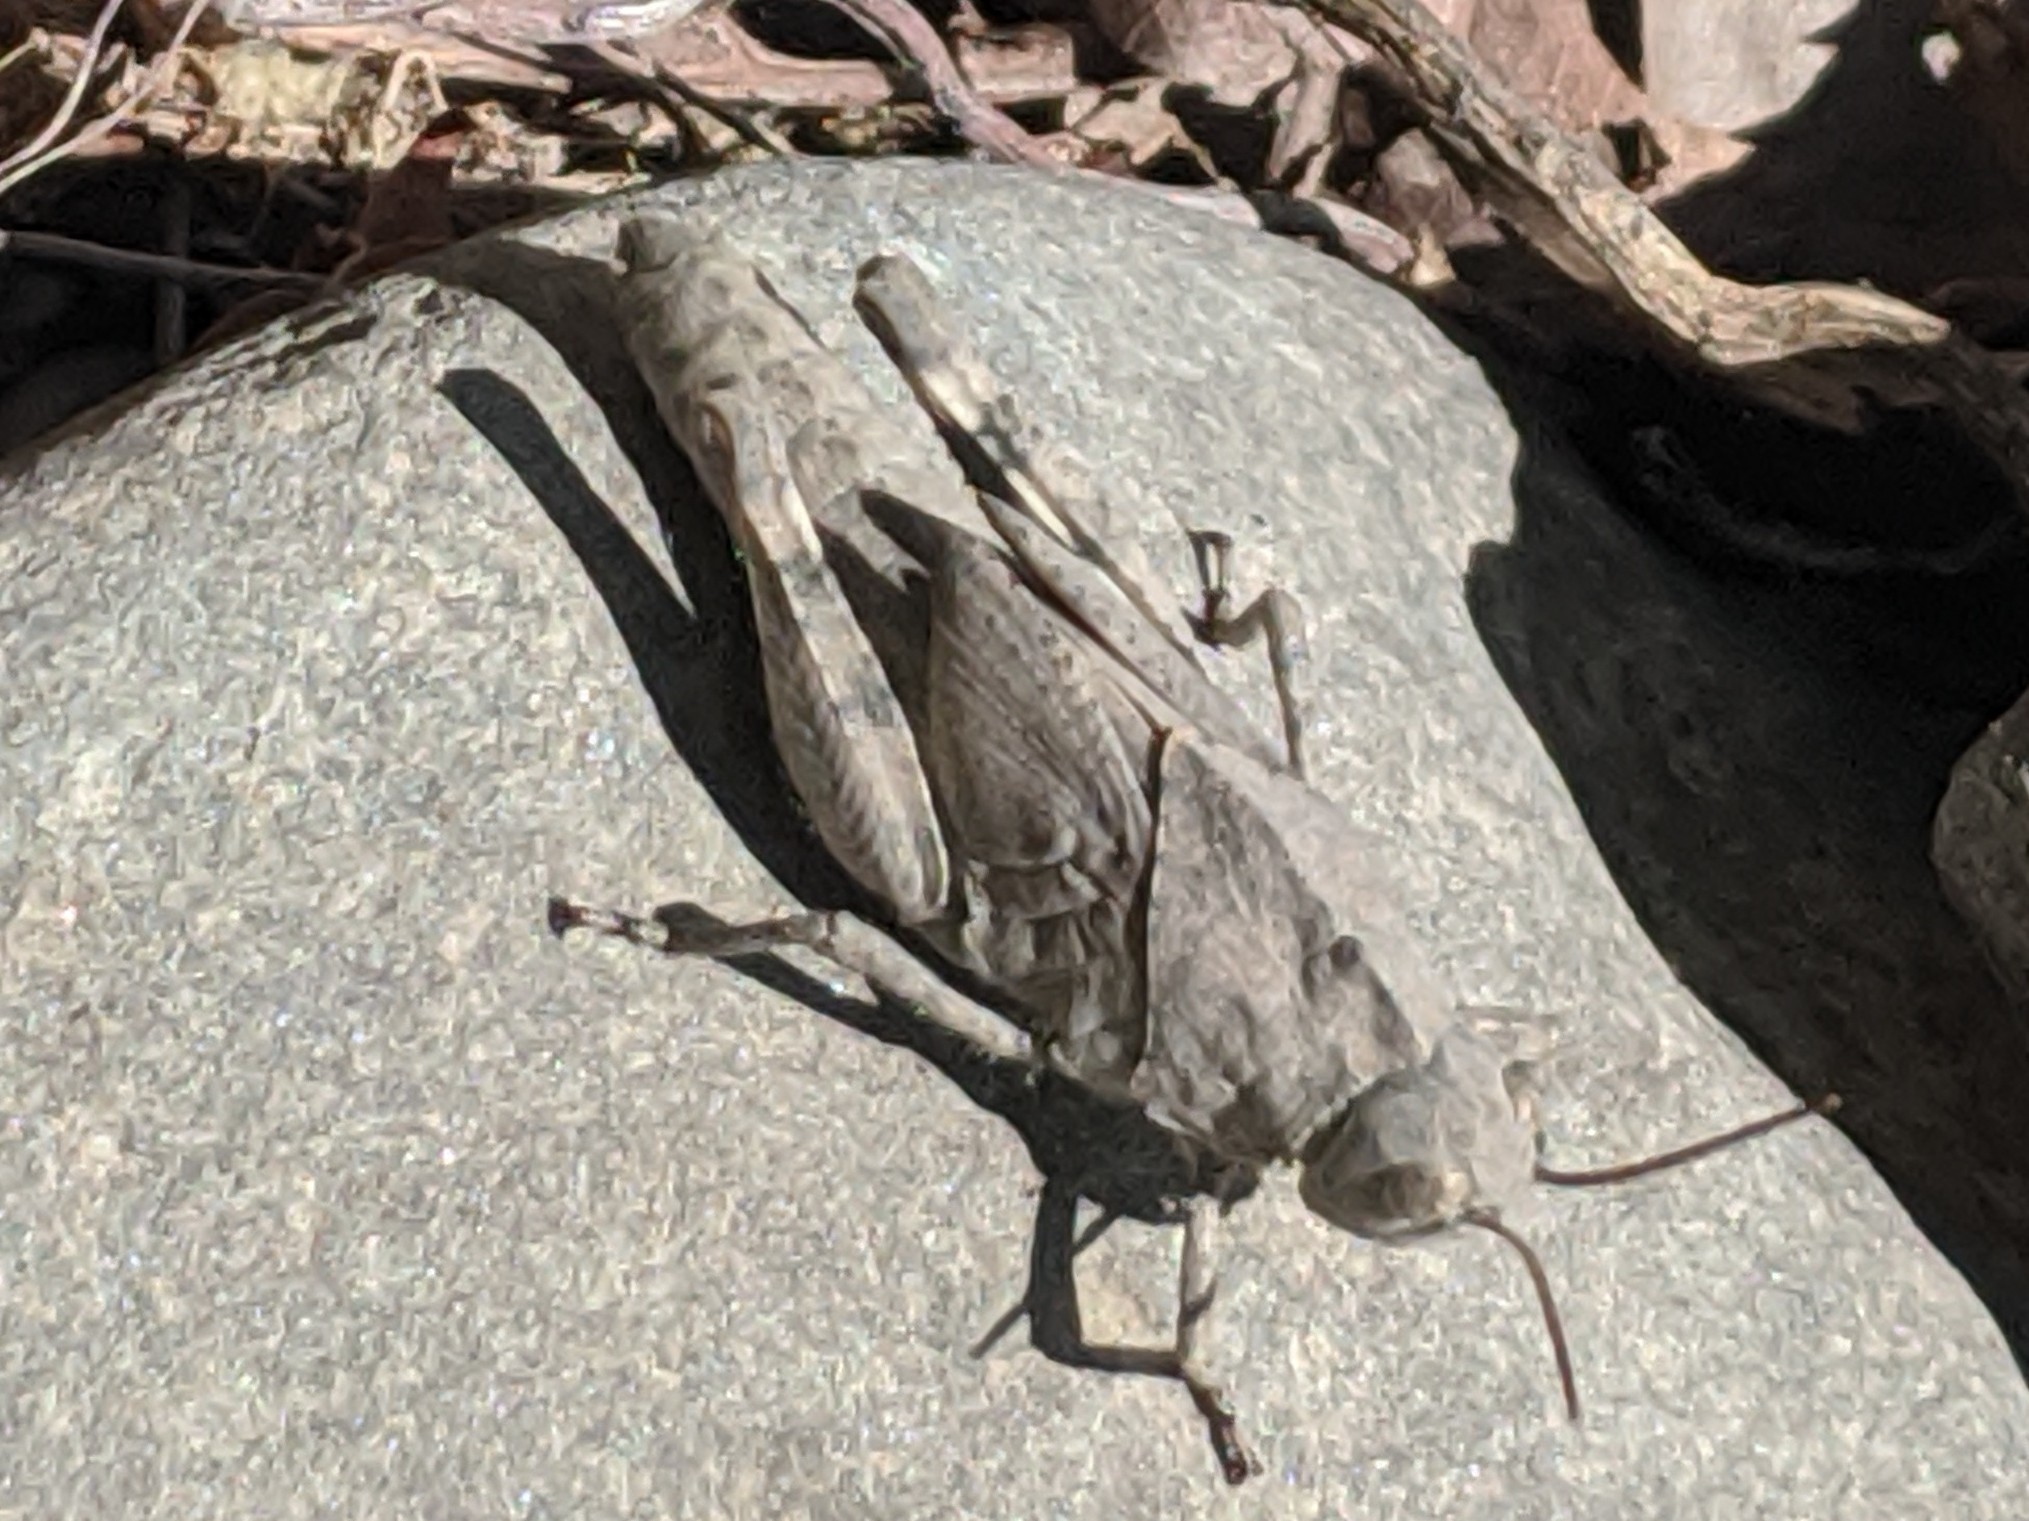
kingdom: Animalia
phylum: Arthropoda
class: Insecta
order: Orthoptera
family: Acrididae
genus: Dissosteira
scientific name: Dissosteira carolina
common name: Carolina grasshopper
